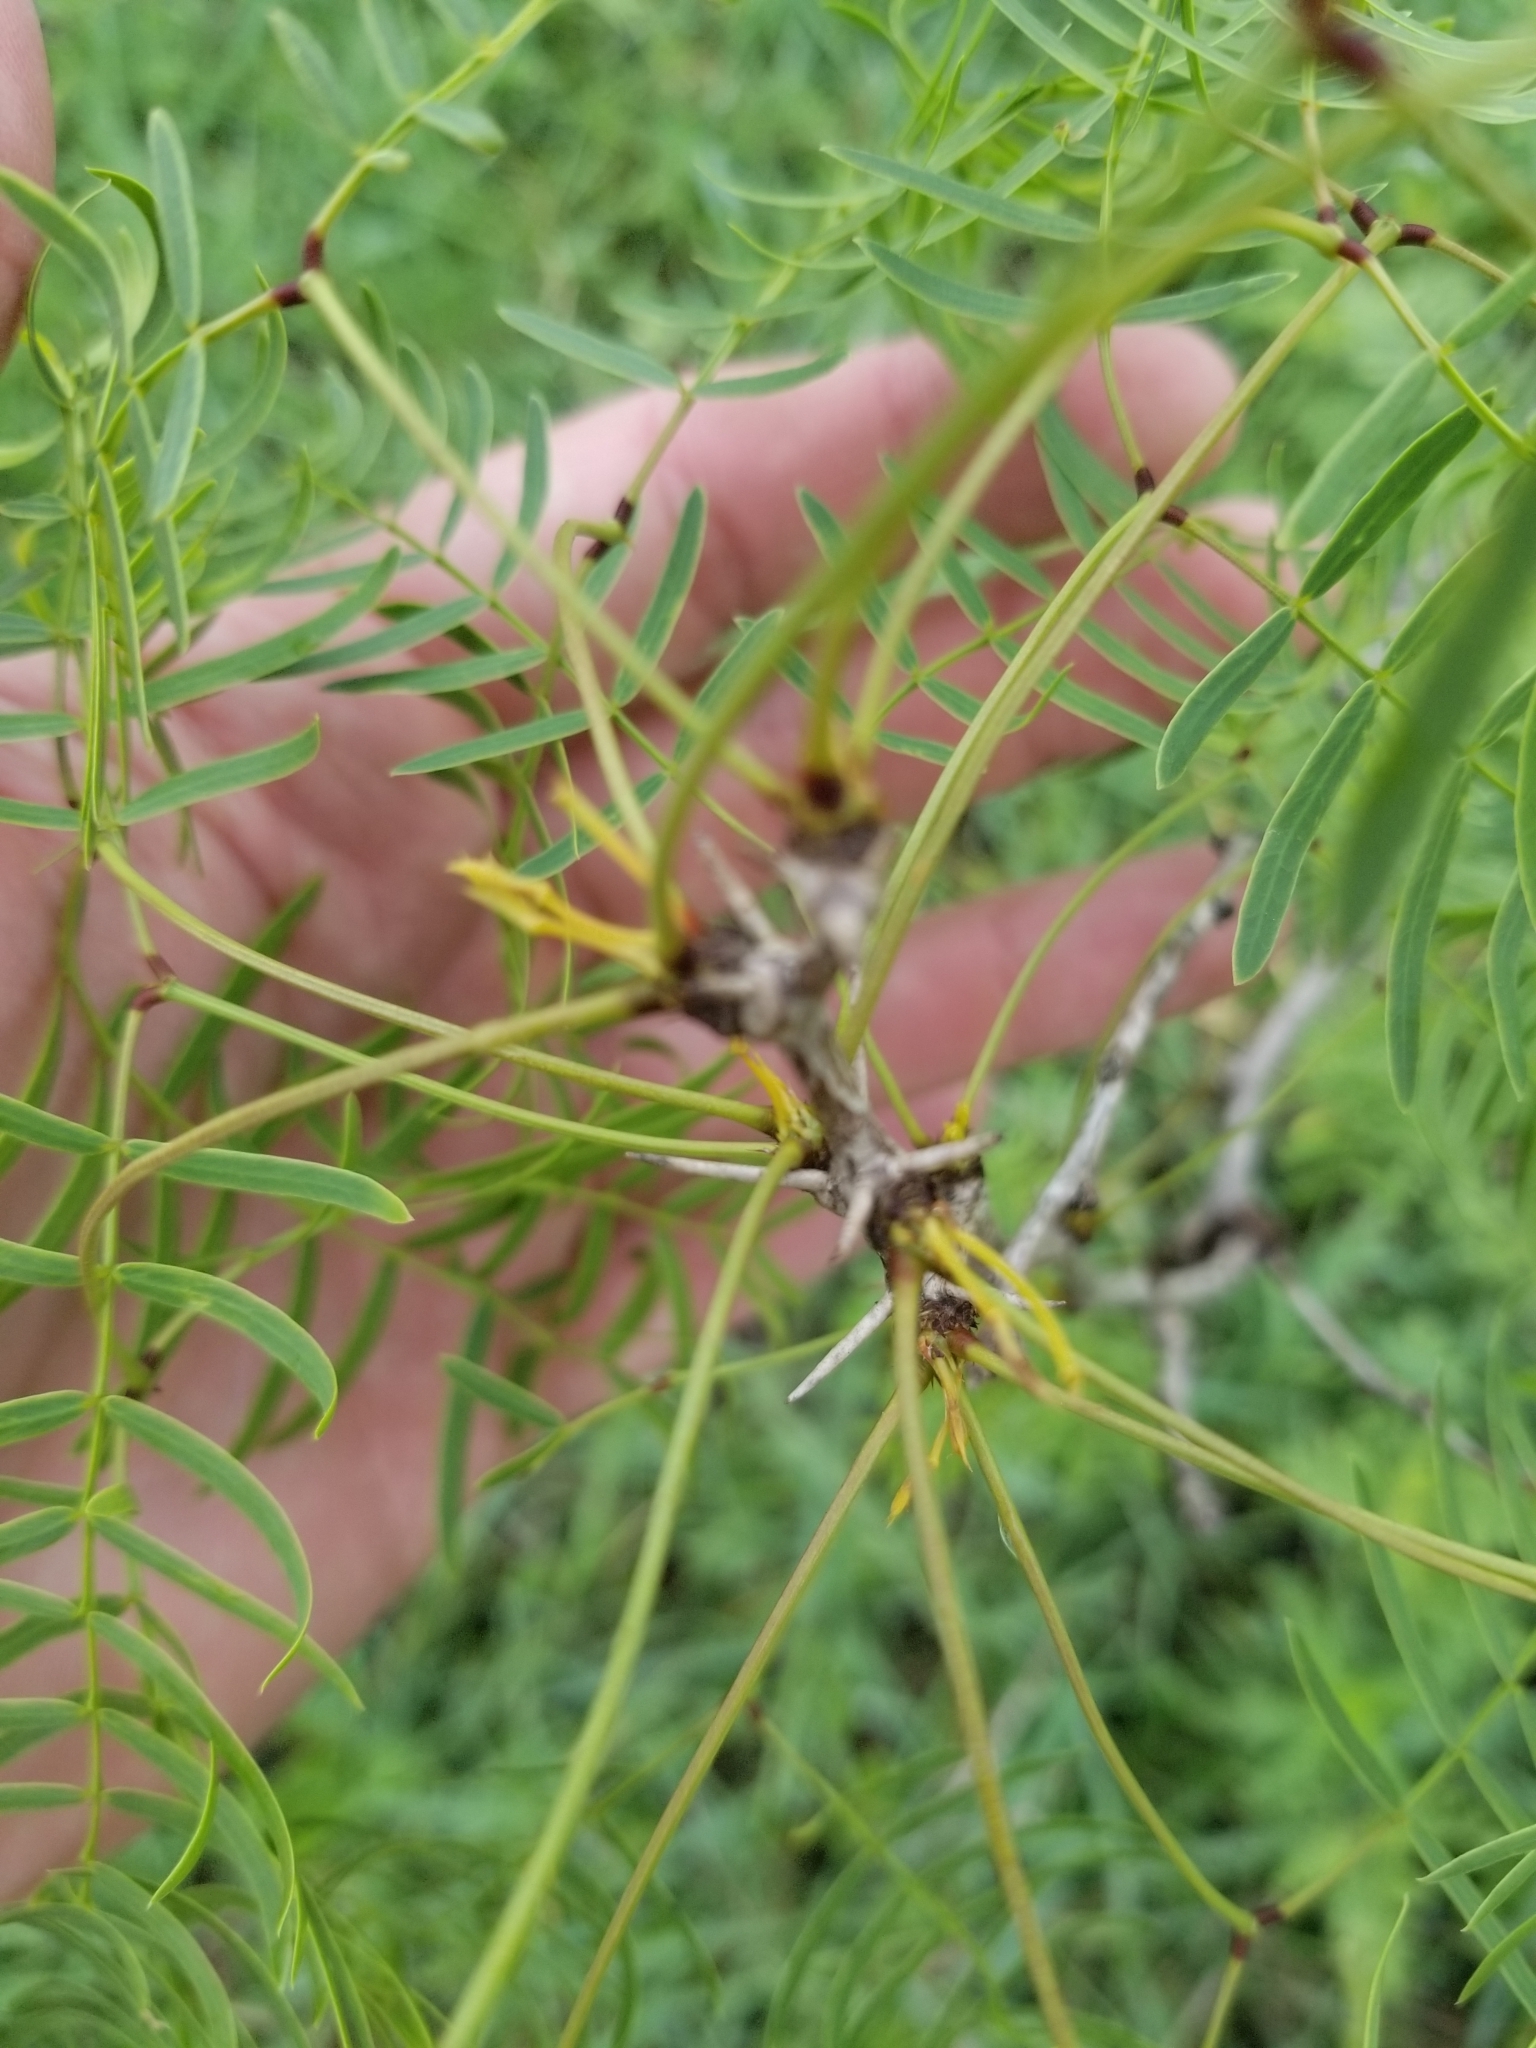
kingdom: Plantae
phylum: Tracheophyta
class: Magnoliopsida
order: Fabales
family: Fabaceae
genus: Prosopis
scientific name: Prosopis glandulosa
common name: Honey mesquite
